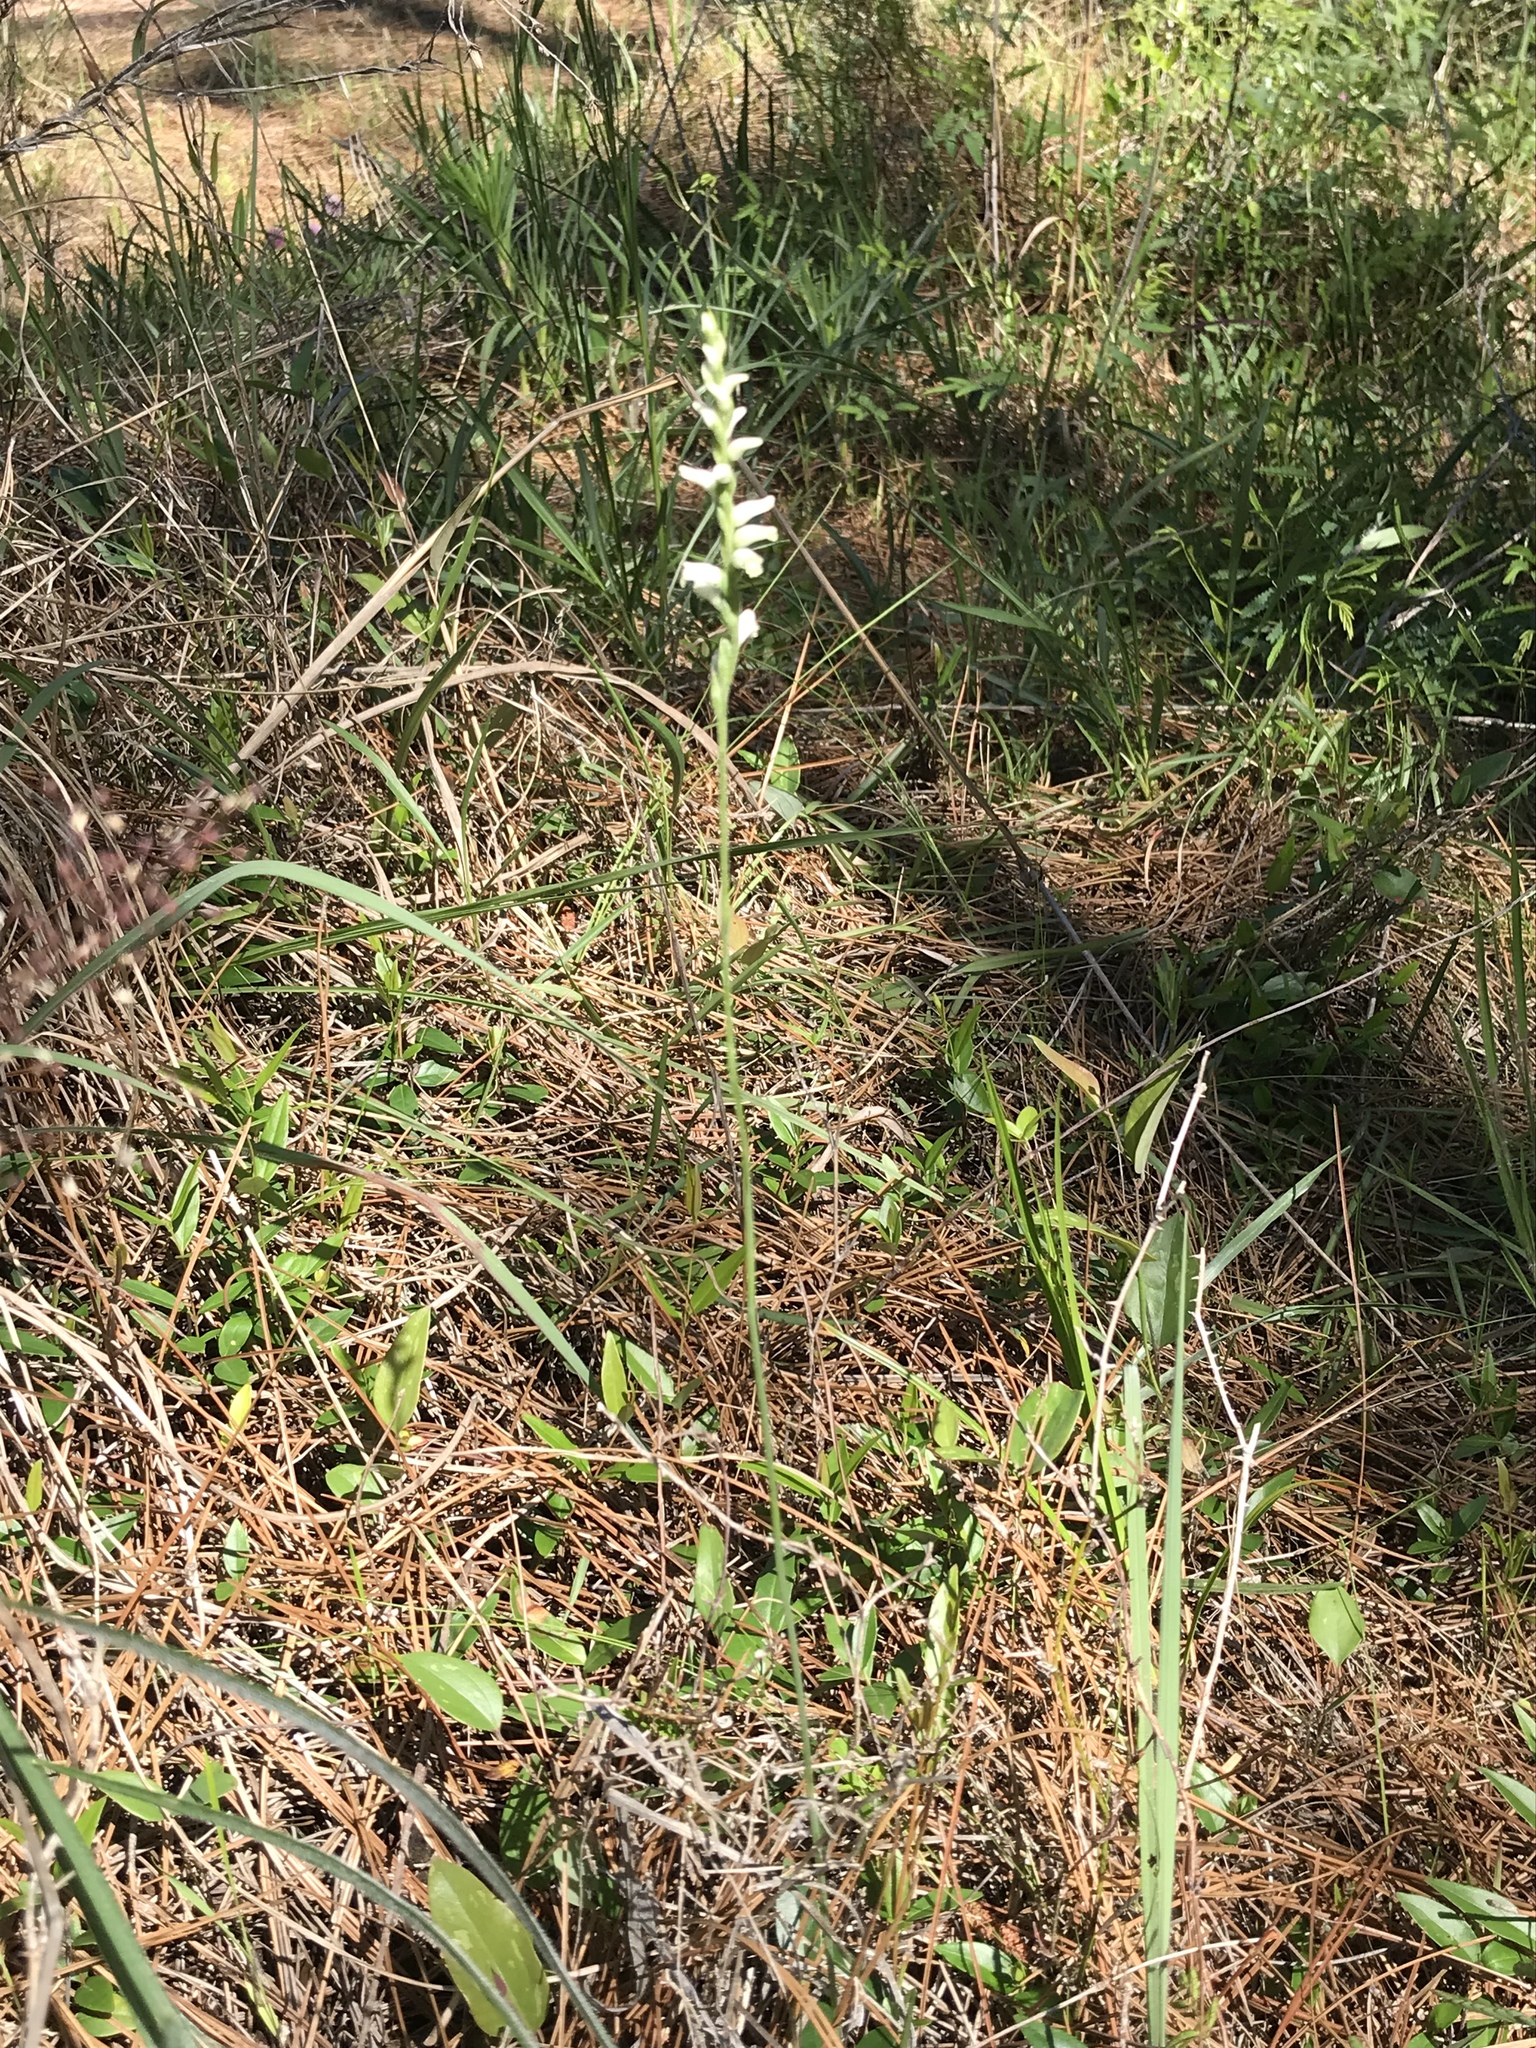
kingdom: Plantae
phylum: Tracheophyta
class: Liliopsida
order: Asparagales
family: Orchidaceae
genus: Spiranthes
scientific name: Spiranthes praecox
